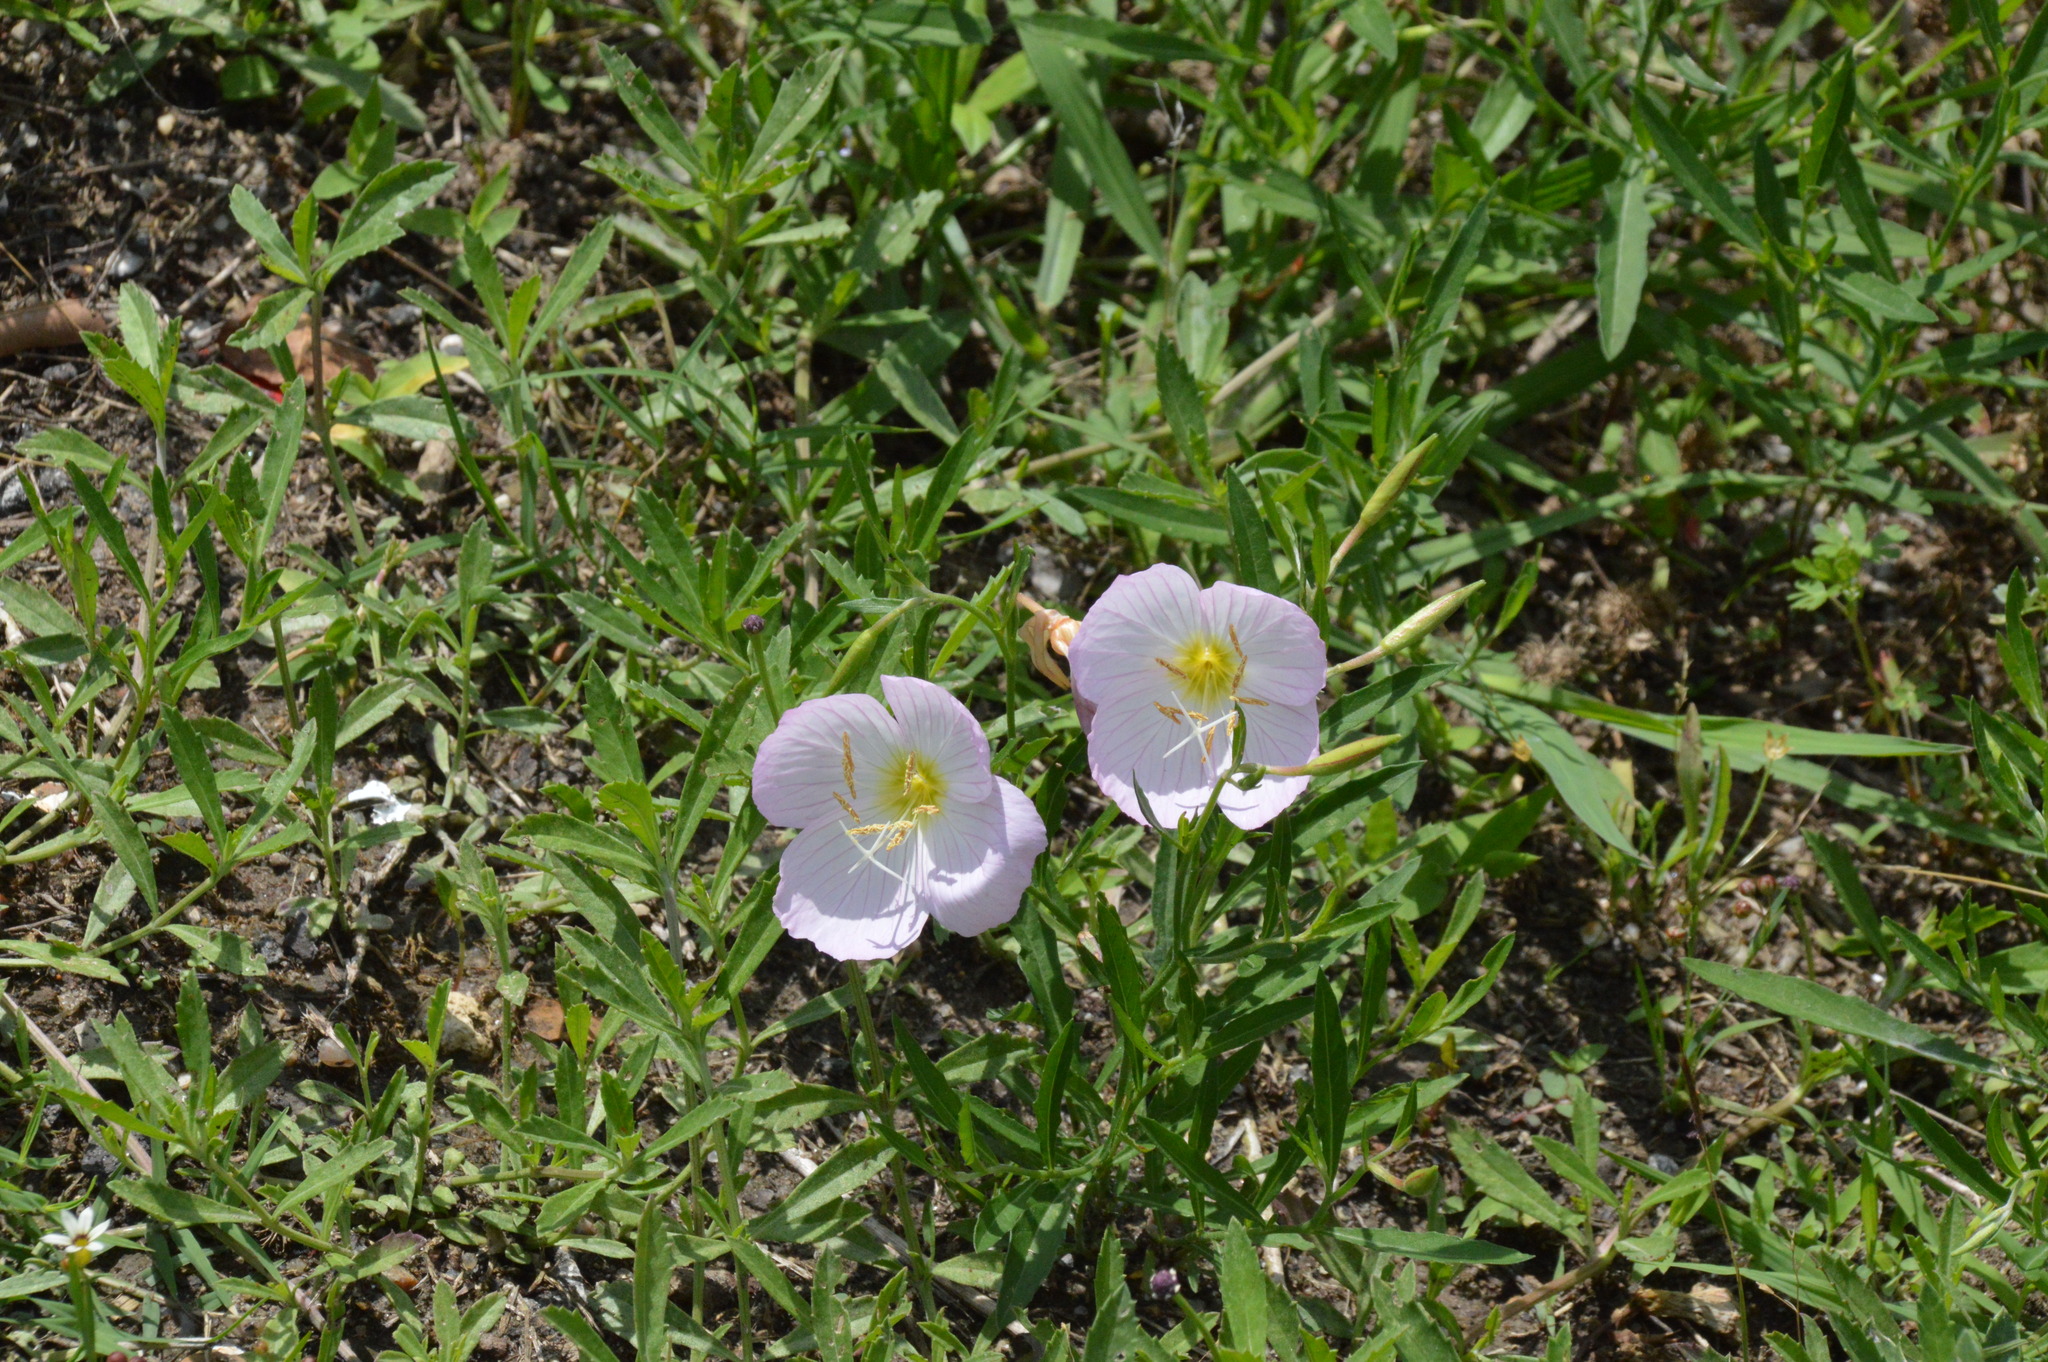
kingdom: Plantae
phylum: Tracheophyta
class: Magnoliopsida
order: Myrtales
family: Onagraceae
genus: Oenothera
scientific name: Oenothera speciosa
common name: White evening-primrose
